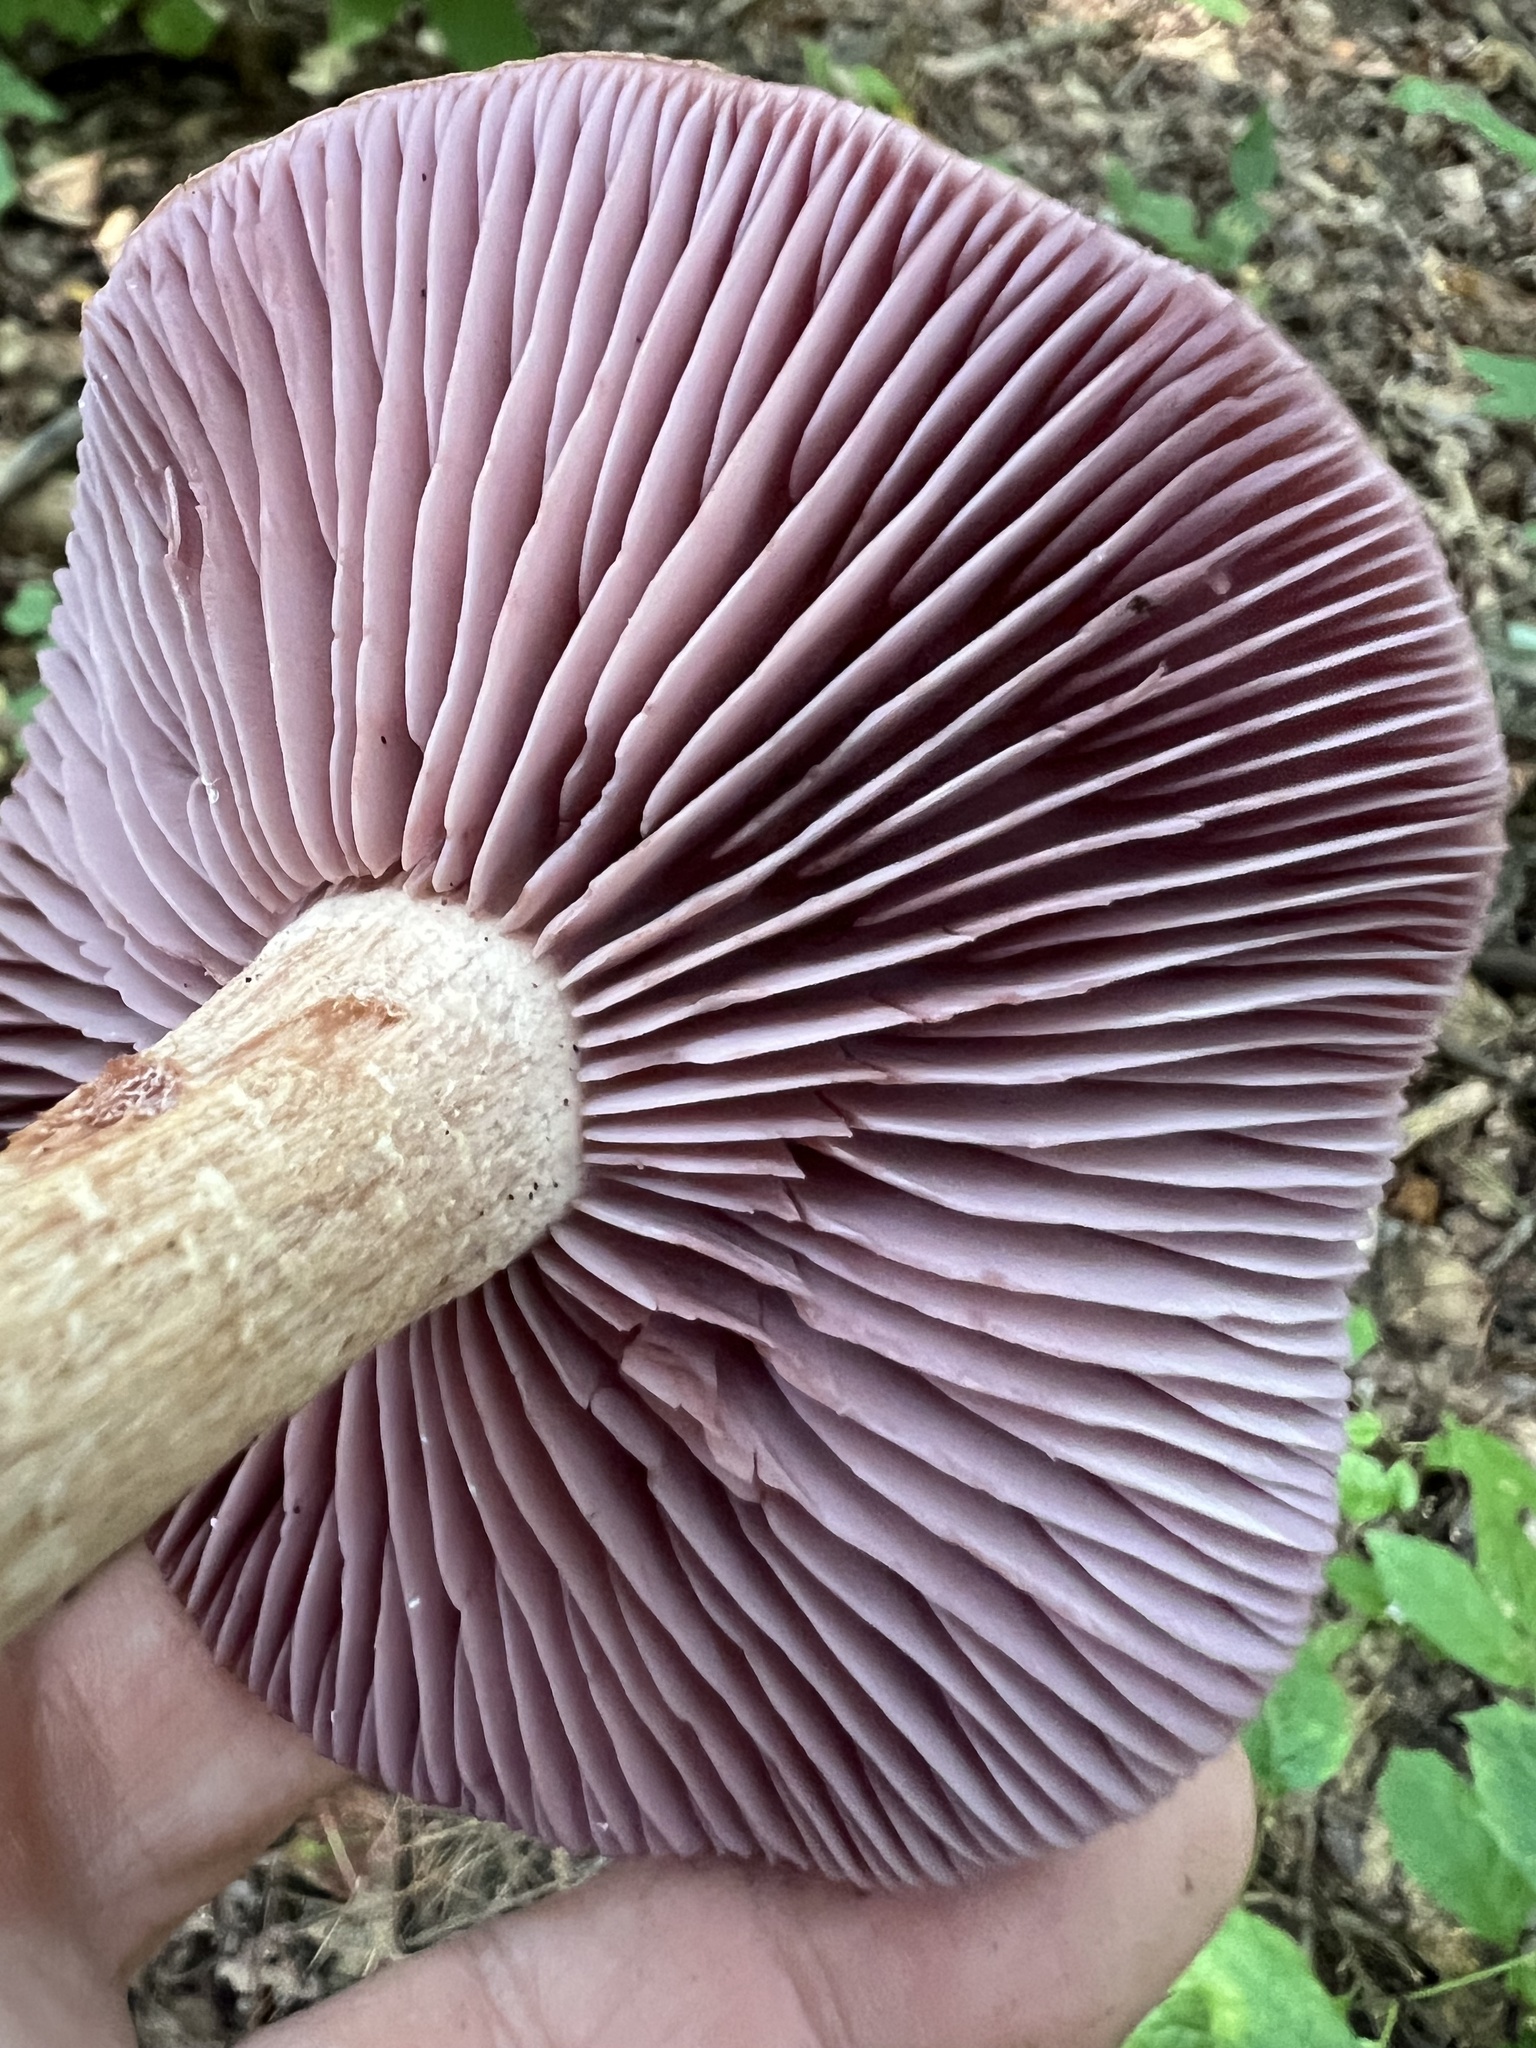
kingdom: Fungi
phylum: Basidiomycota
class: Agaricomycetes
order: Agaricales
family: Hydnangiaceae
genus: Laccaria
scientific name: Laccaria ochropurpurea
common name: Purple laccaria
